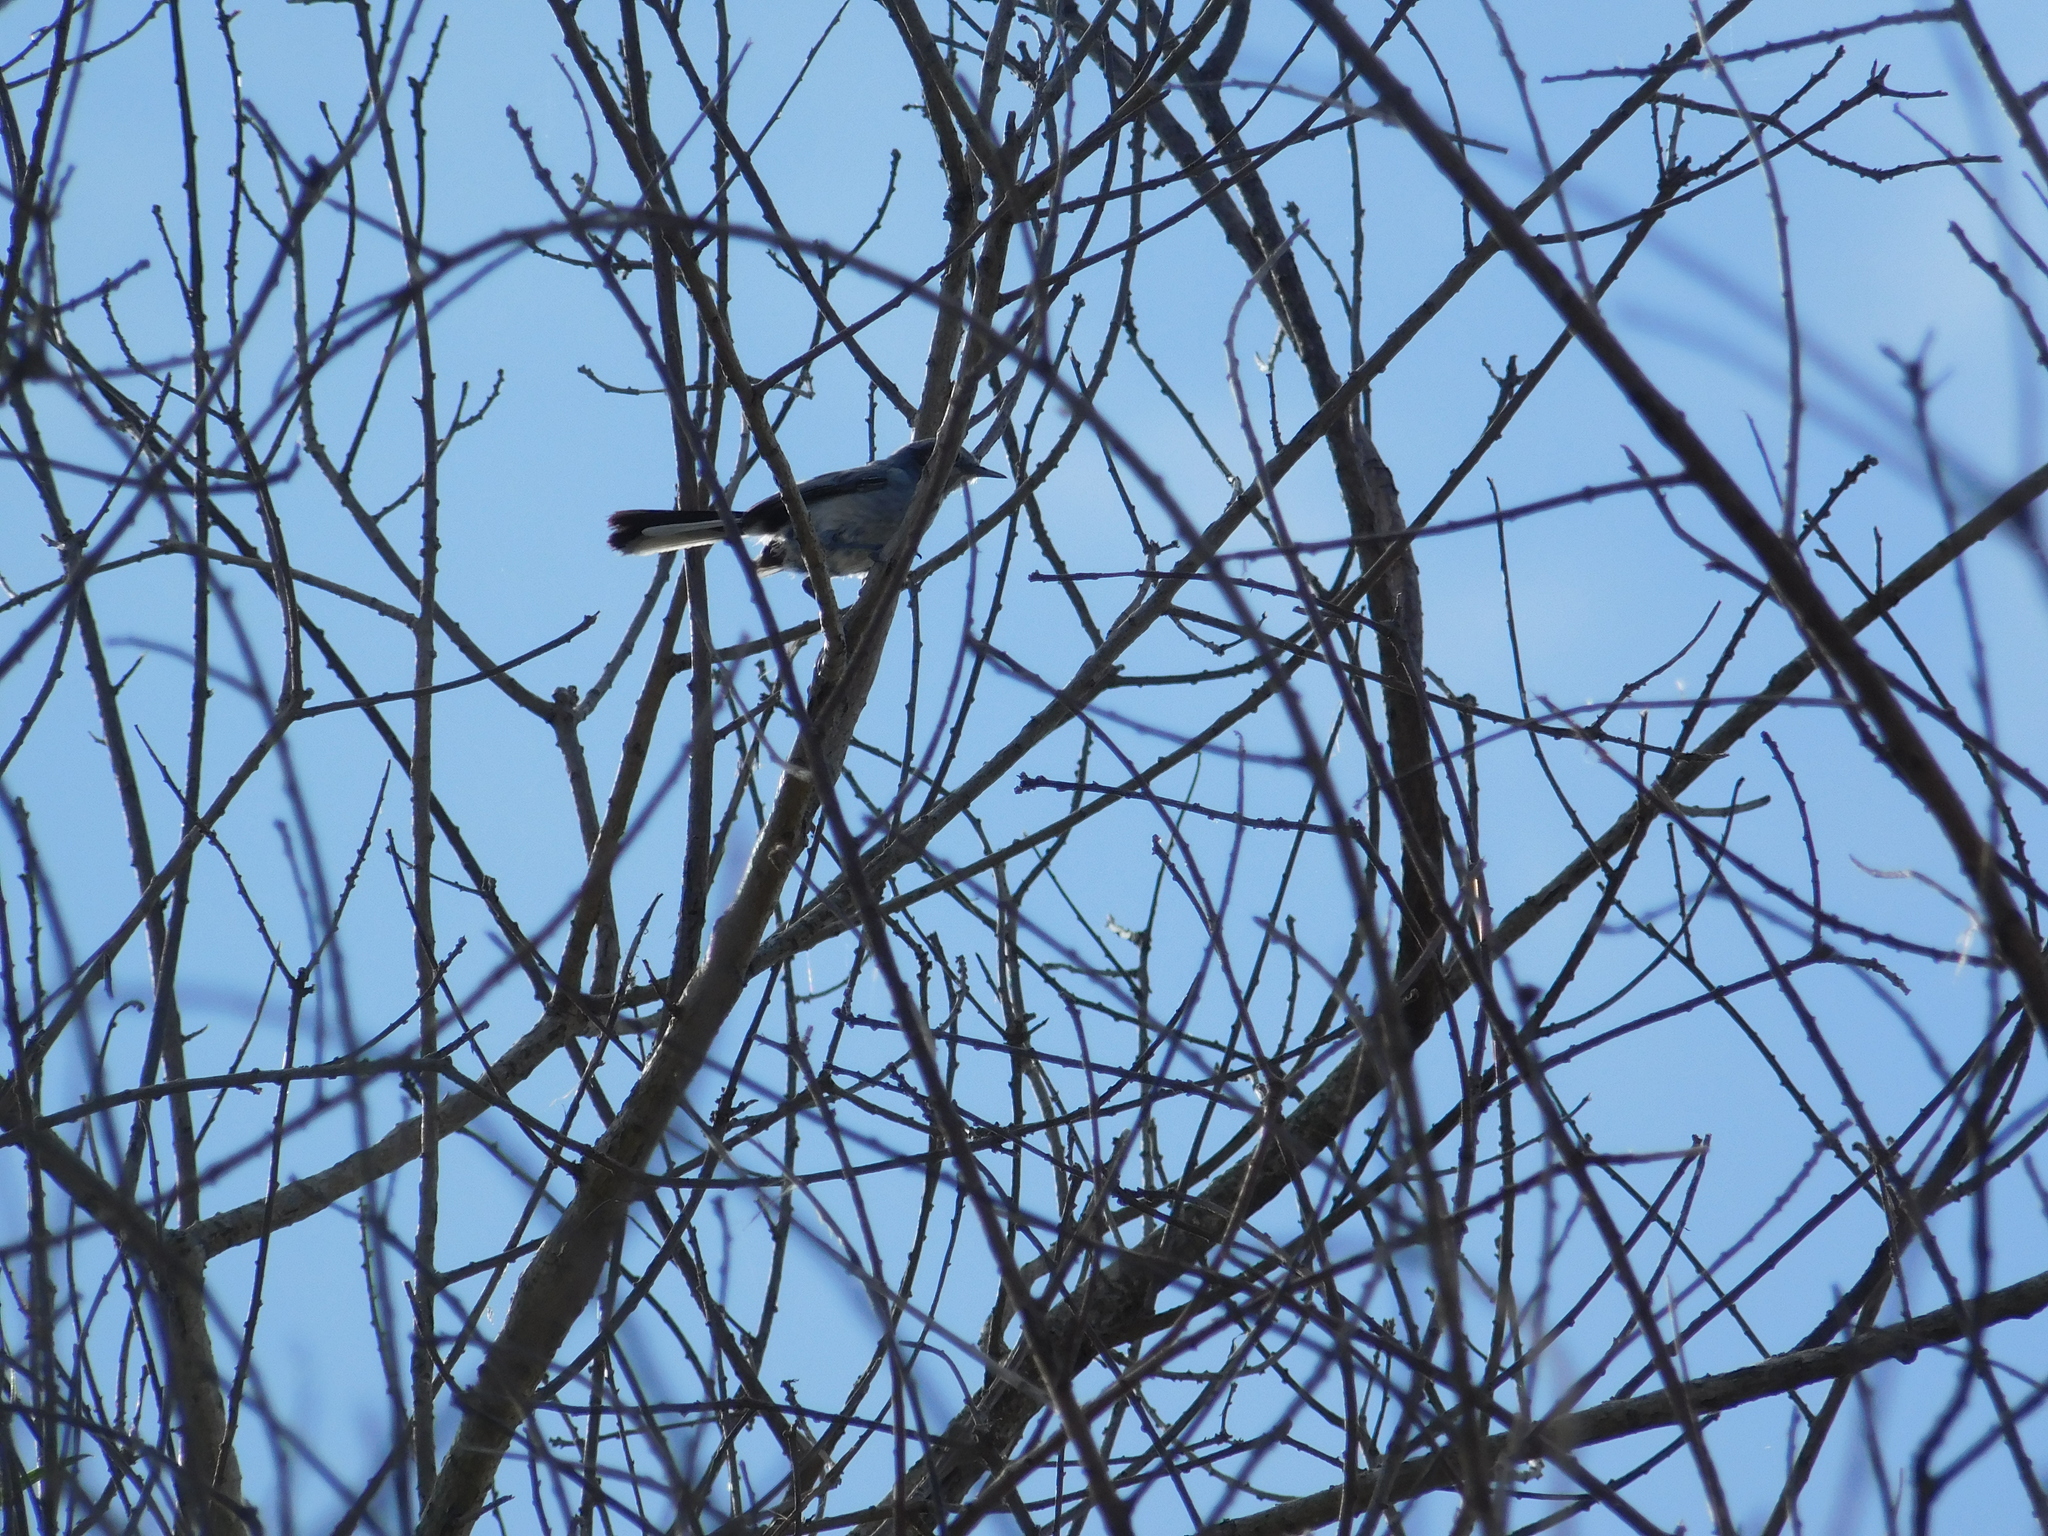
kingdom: Animalia
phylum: Chordata
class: Aves
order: Passeriformes
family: Polioptilidae
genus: Polioptila
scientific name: Polioptila dumicola
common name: Masked gnatcatcher
